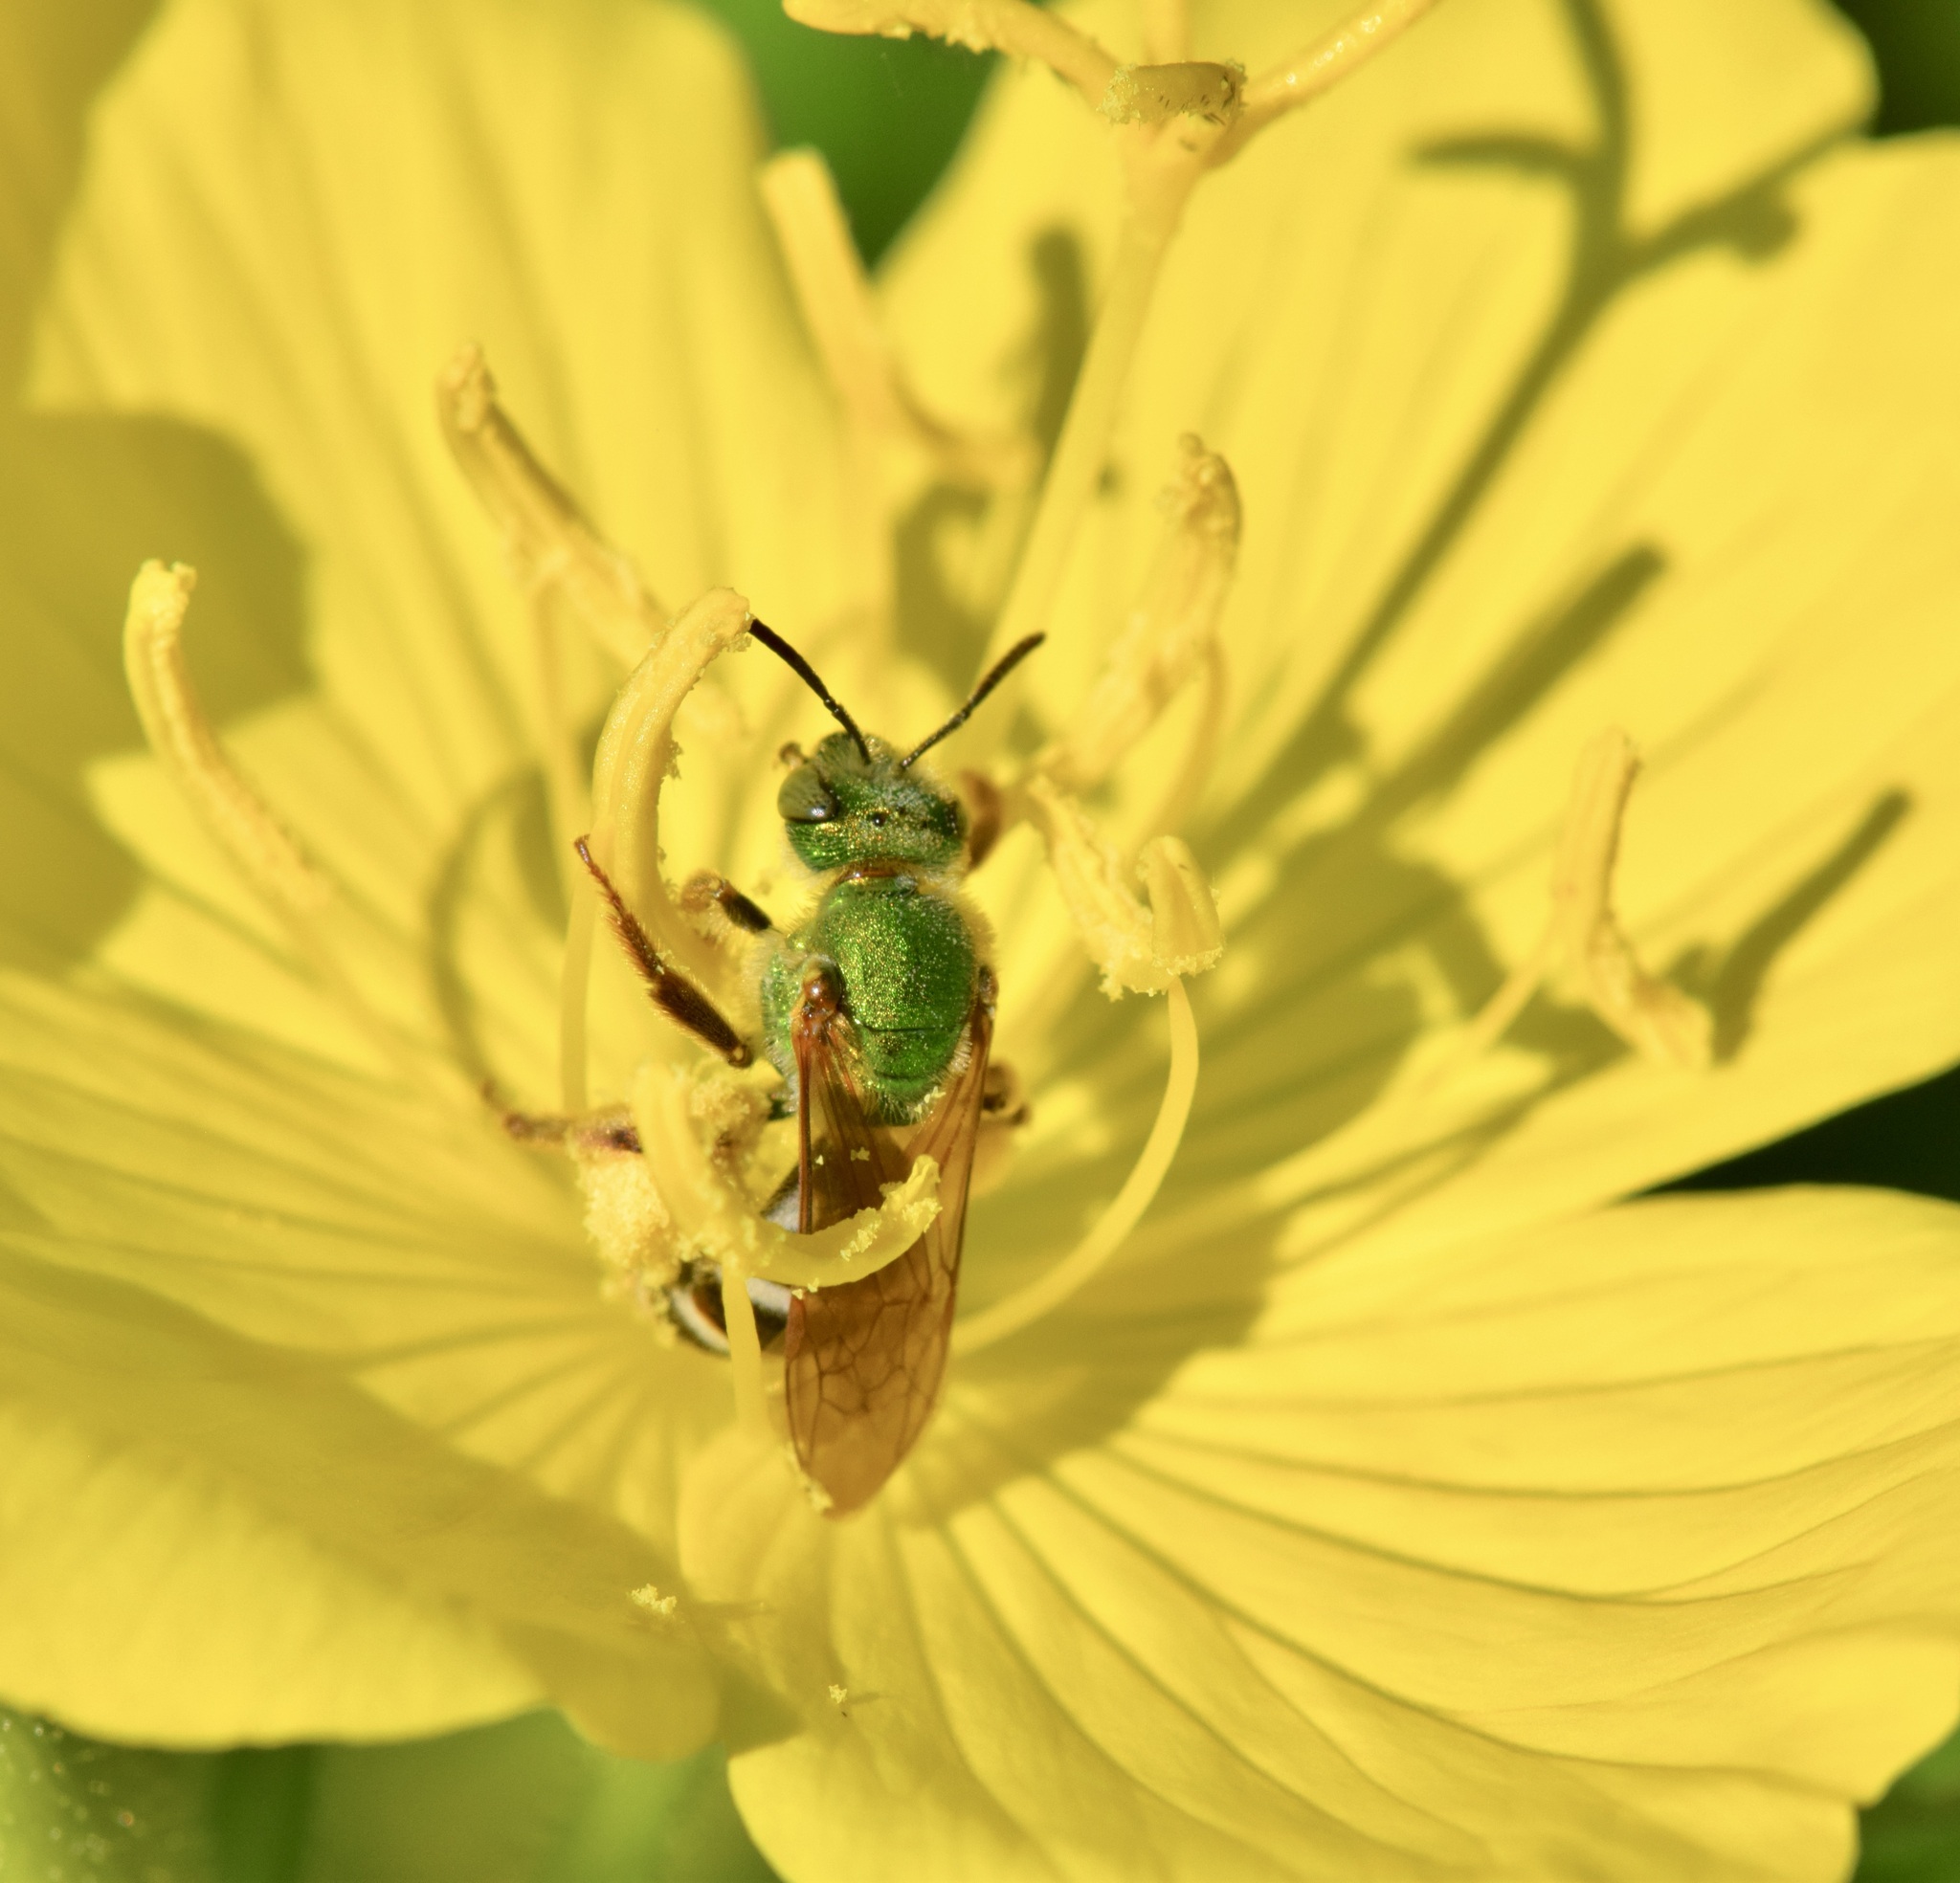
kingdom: Animalia
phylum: Arthropoda
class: Insecta
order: Hymenoptera
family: Halictidae
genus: Agapostemon
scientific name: Agapostemon virescens
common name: Bicolored striped sweat bee
